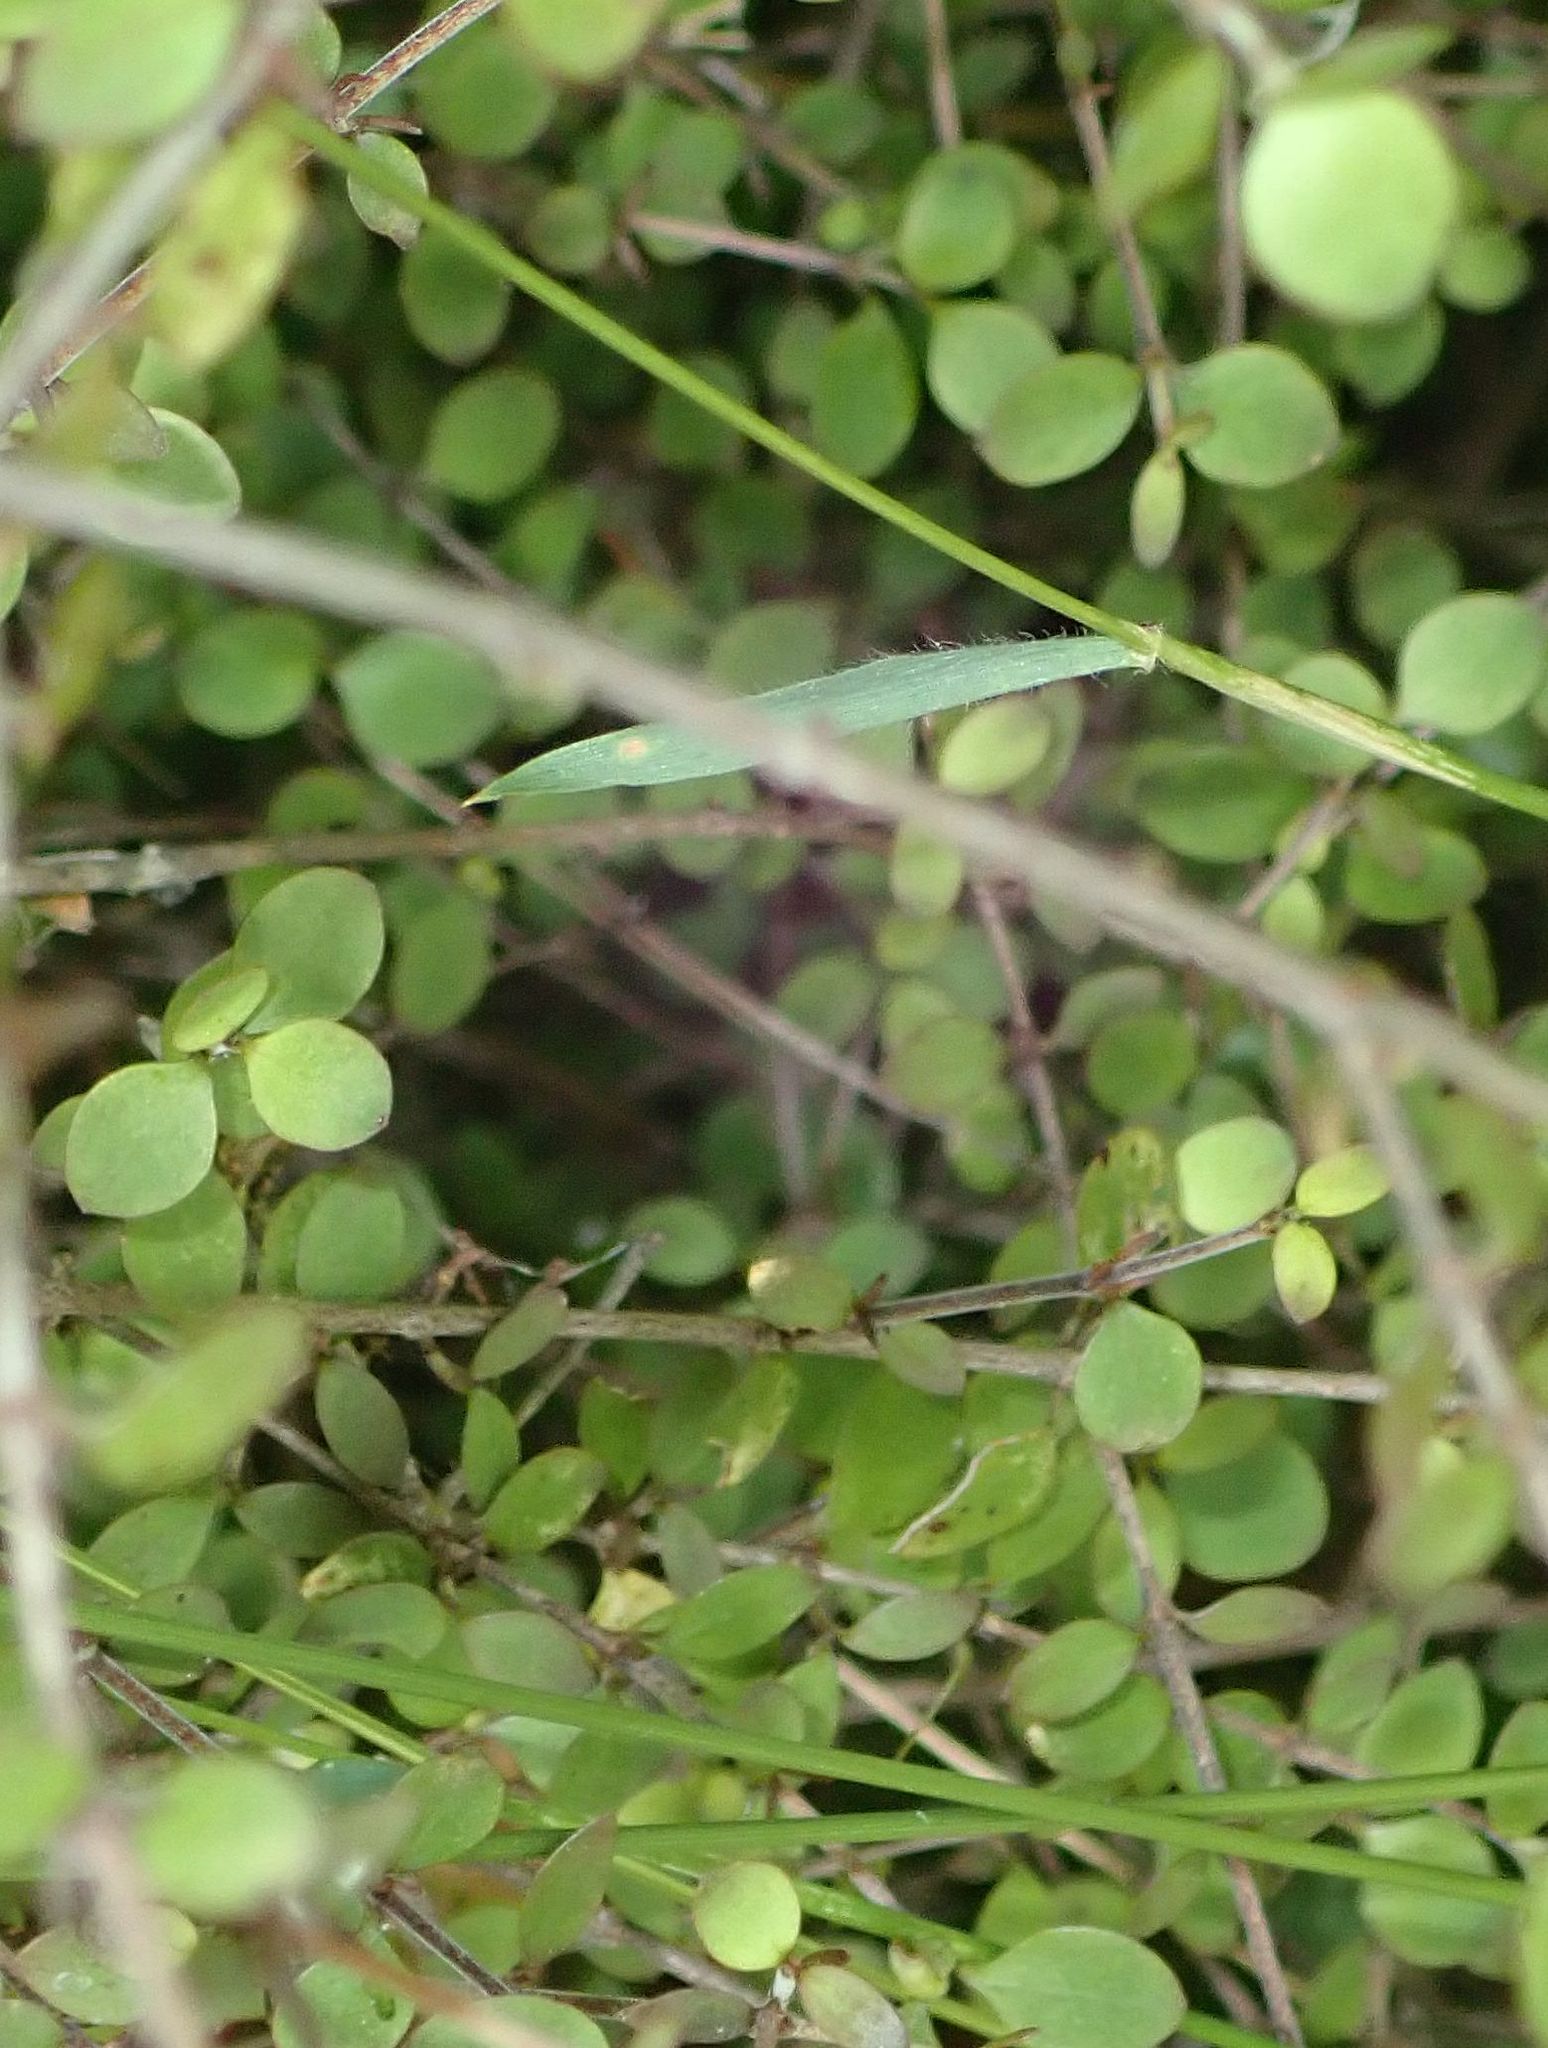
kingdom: Plantae
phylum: Tracheophyta
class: Magnoliopsida
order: Gentianales
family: Rubiaceae
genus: Coprosma
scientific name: Coprosma rhamnoides
